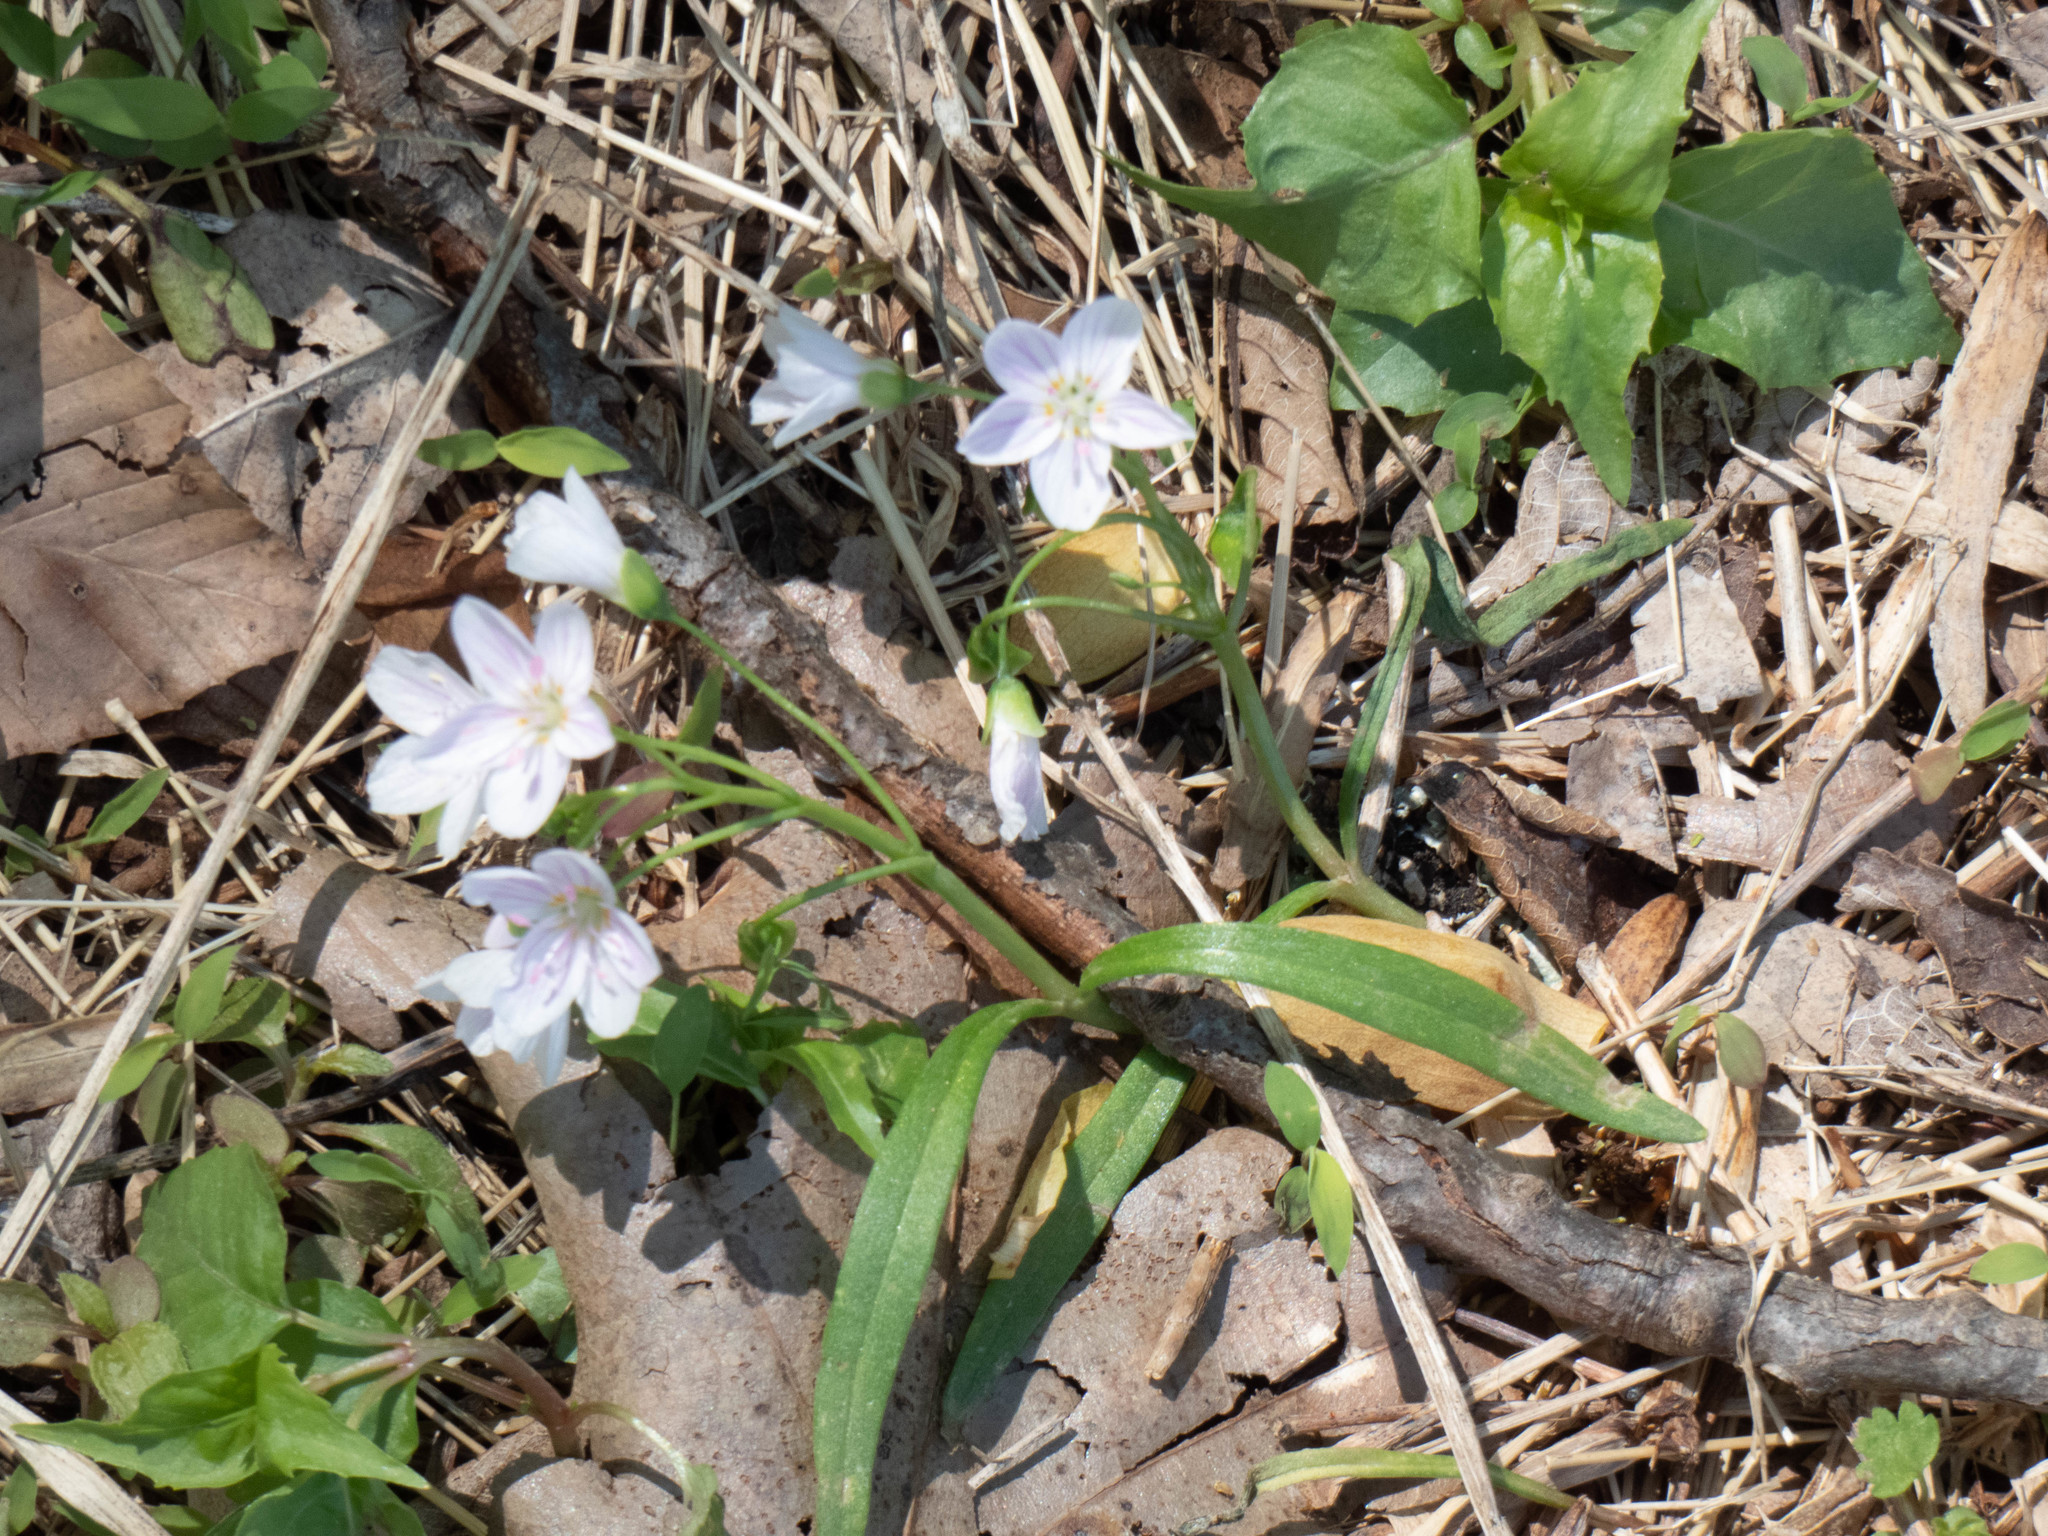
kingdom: Plantae
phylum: Tracheophyta
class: Magnoliopsida
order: Caryophyllales
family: Montiaceae
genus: Claytonia
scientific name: Claytonia virginica
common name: Virginia springbeauty
